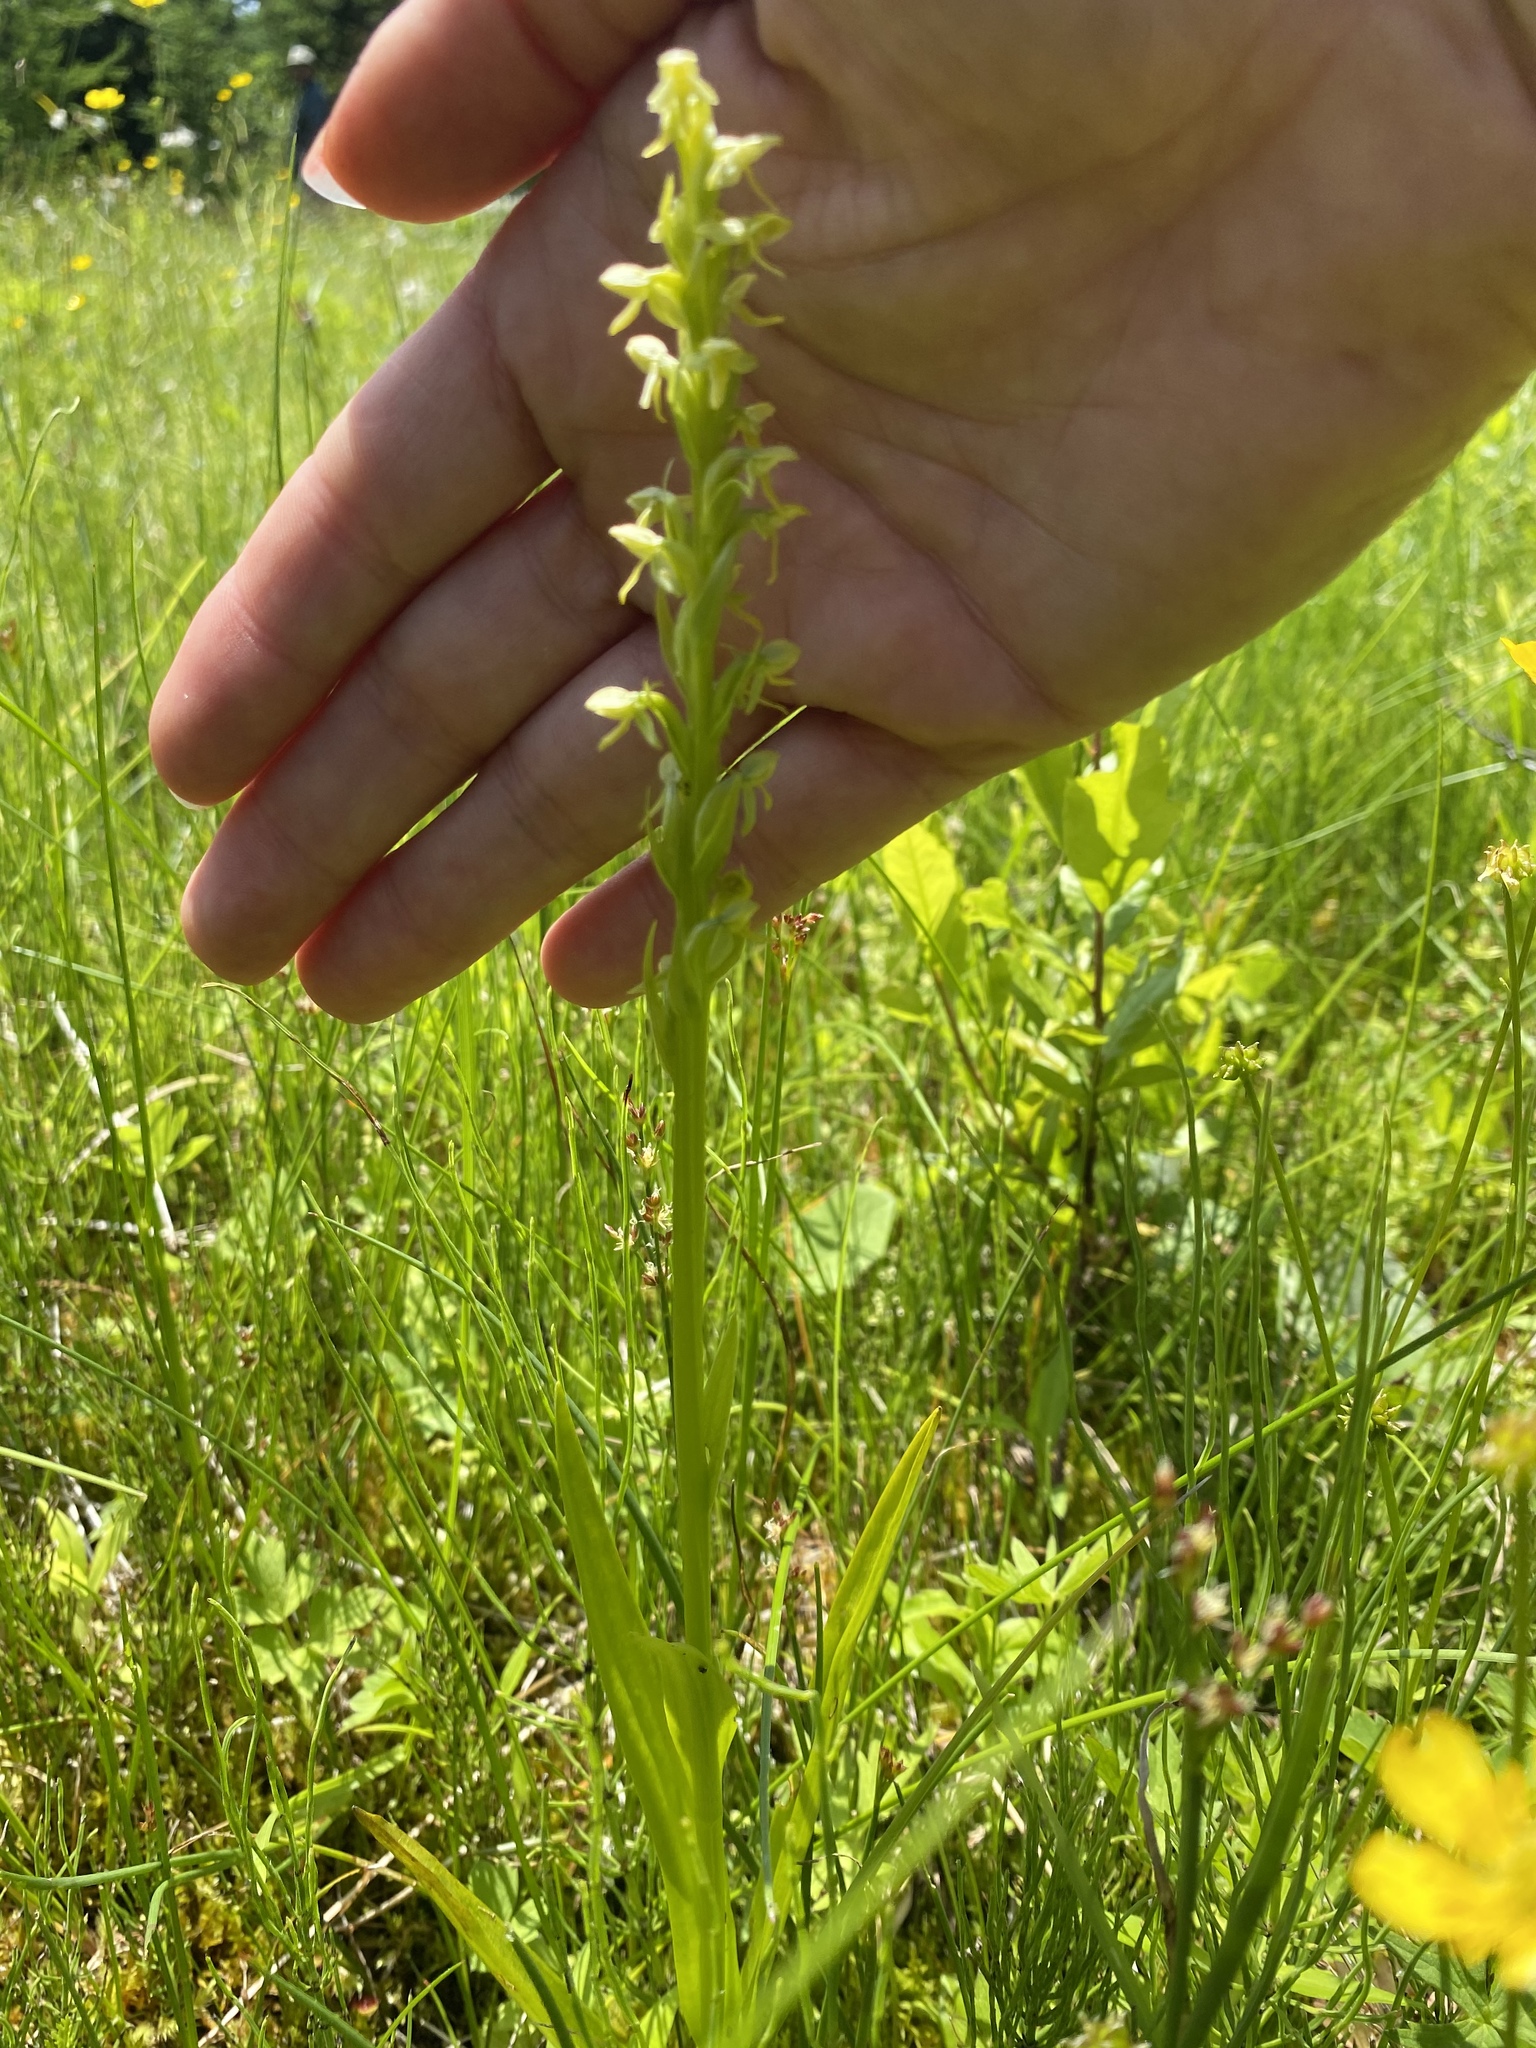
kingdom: Plantae
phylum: Tracheophyta
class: Liliopsida
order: Asparagales
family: Orchidaceae
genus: Platanthera
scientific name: Platanthera aquilonis
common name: Northern green orchid
